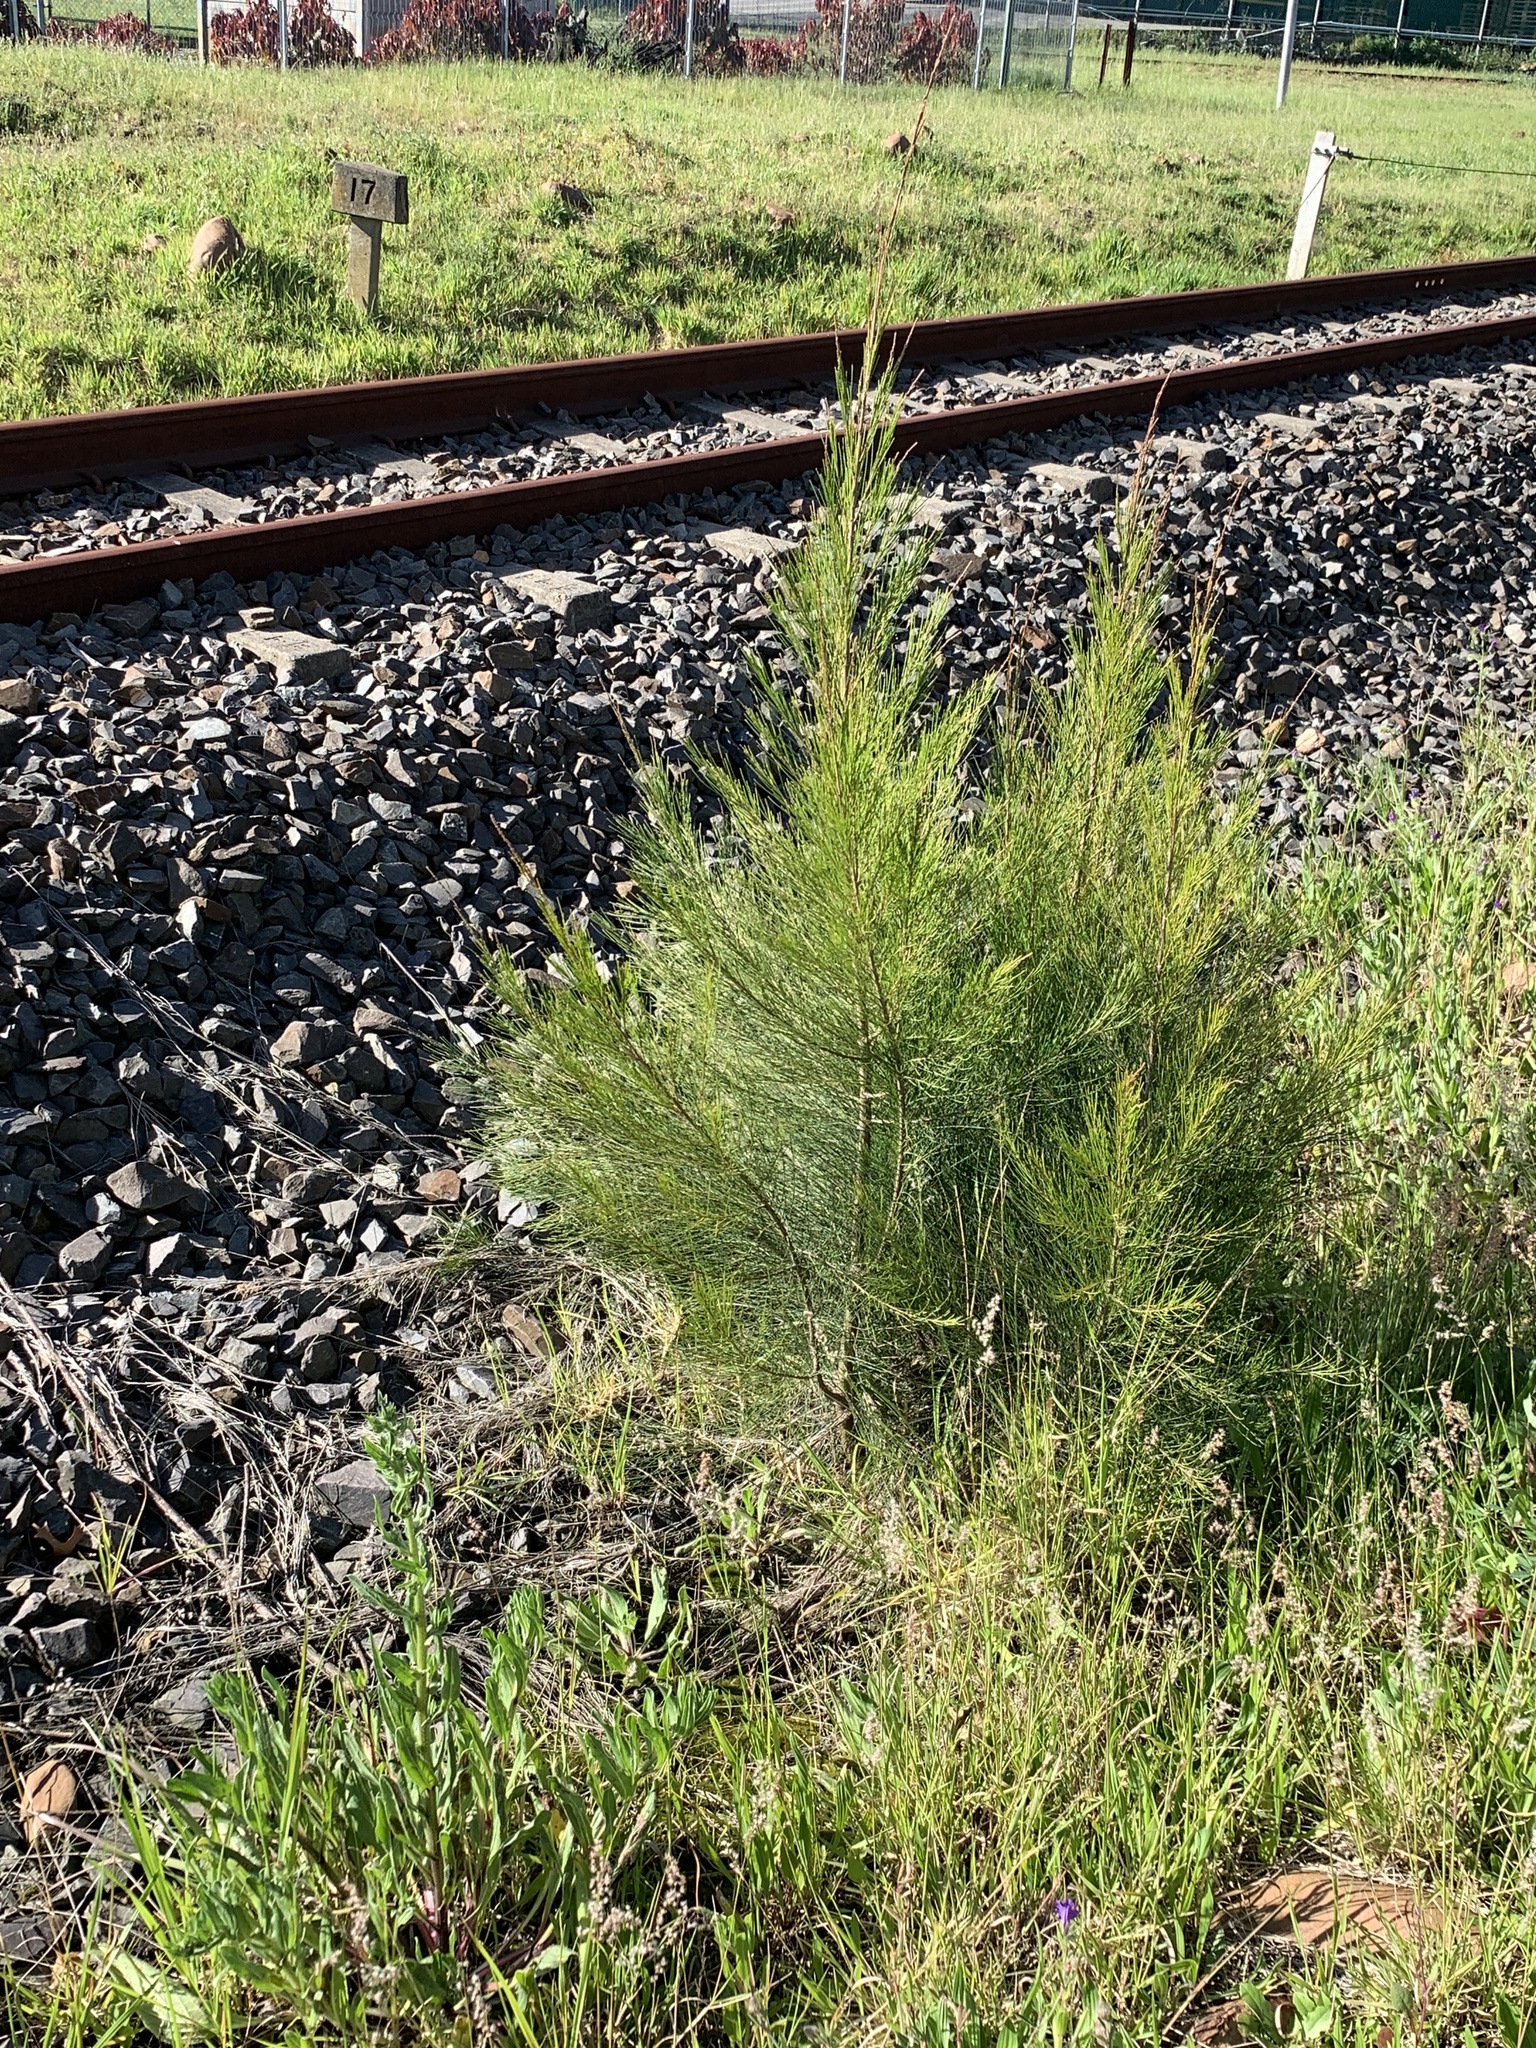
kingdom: Plantae
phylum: Tracheophyta
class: Magnoliopsida
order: Fagales
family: Casuarinaceae
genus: Casuarina
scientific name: Casuarina cunninghamiana
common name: River sheoak
